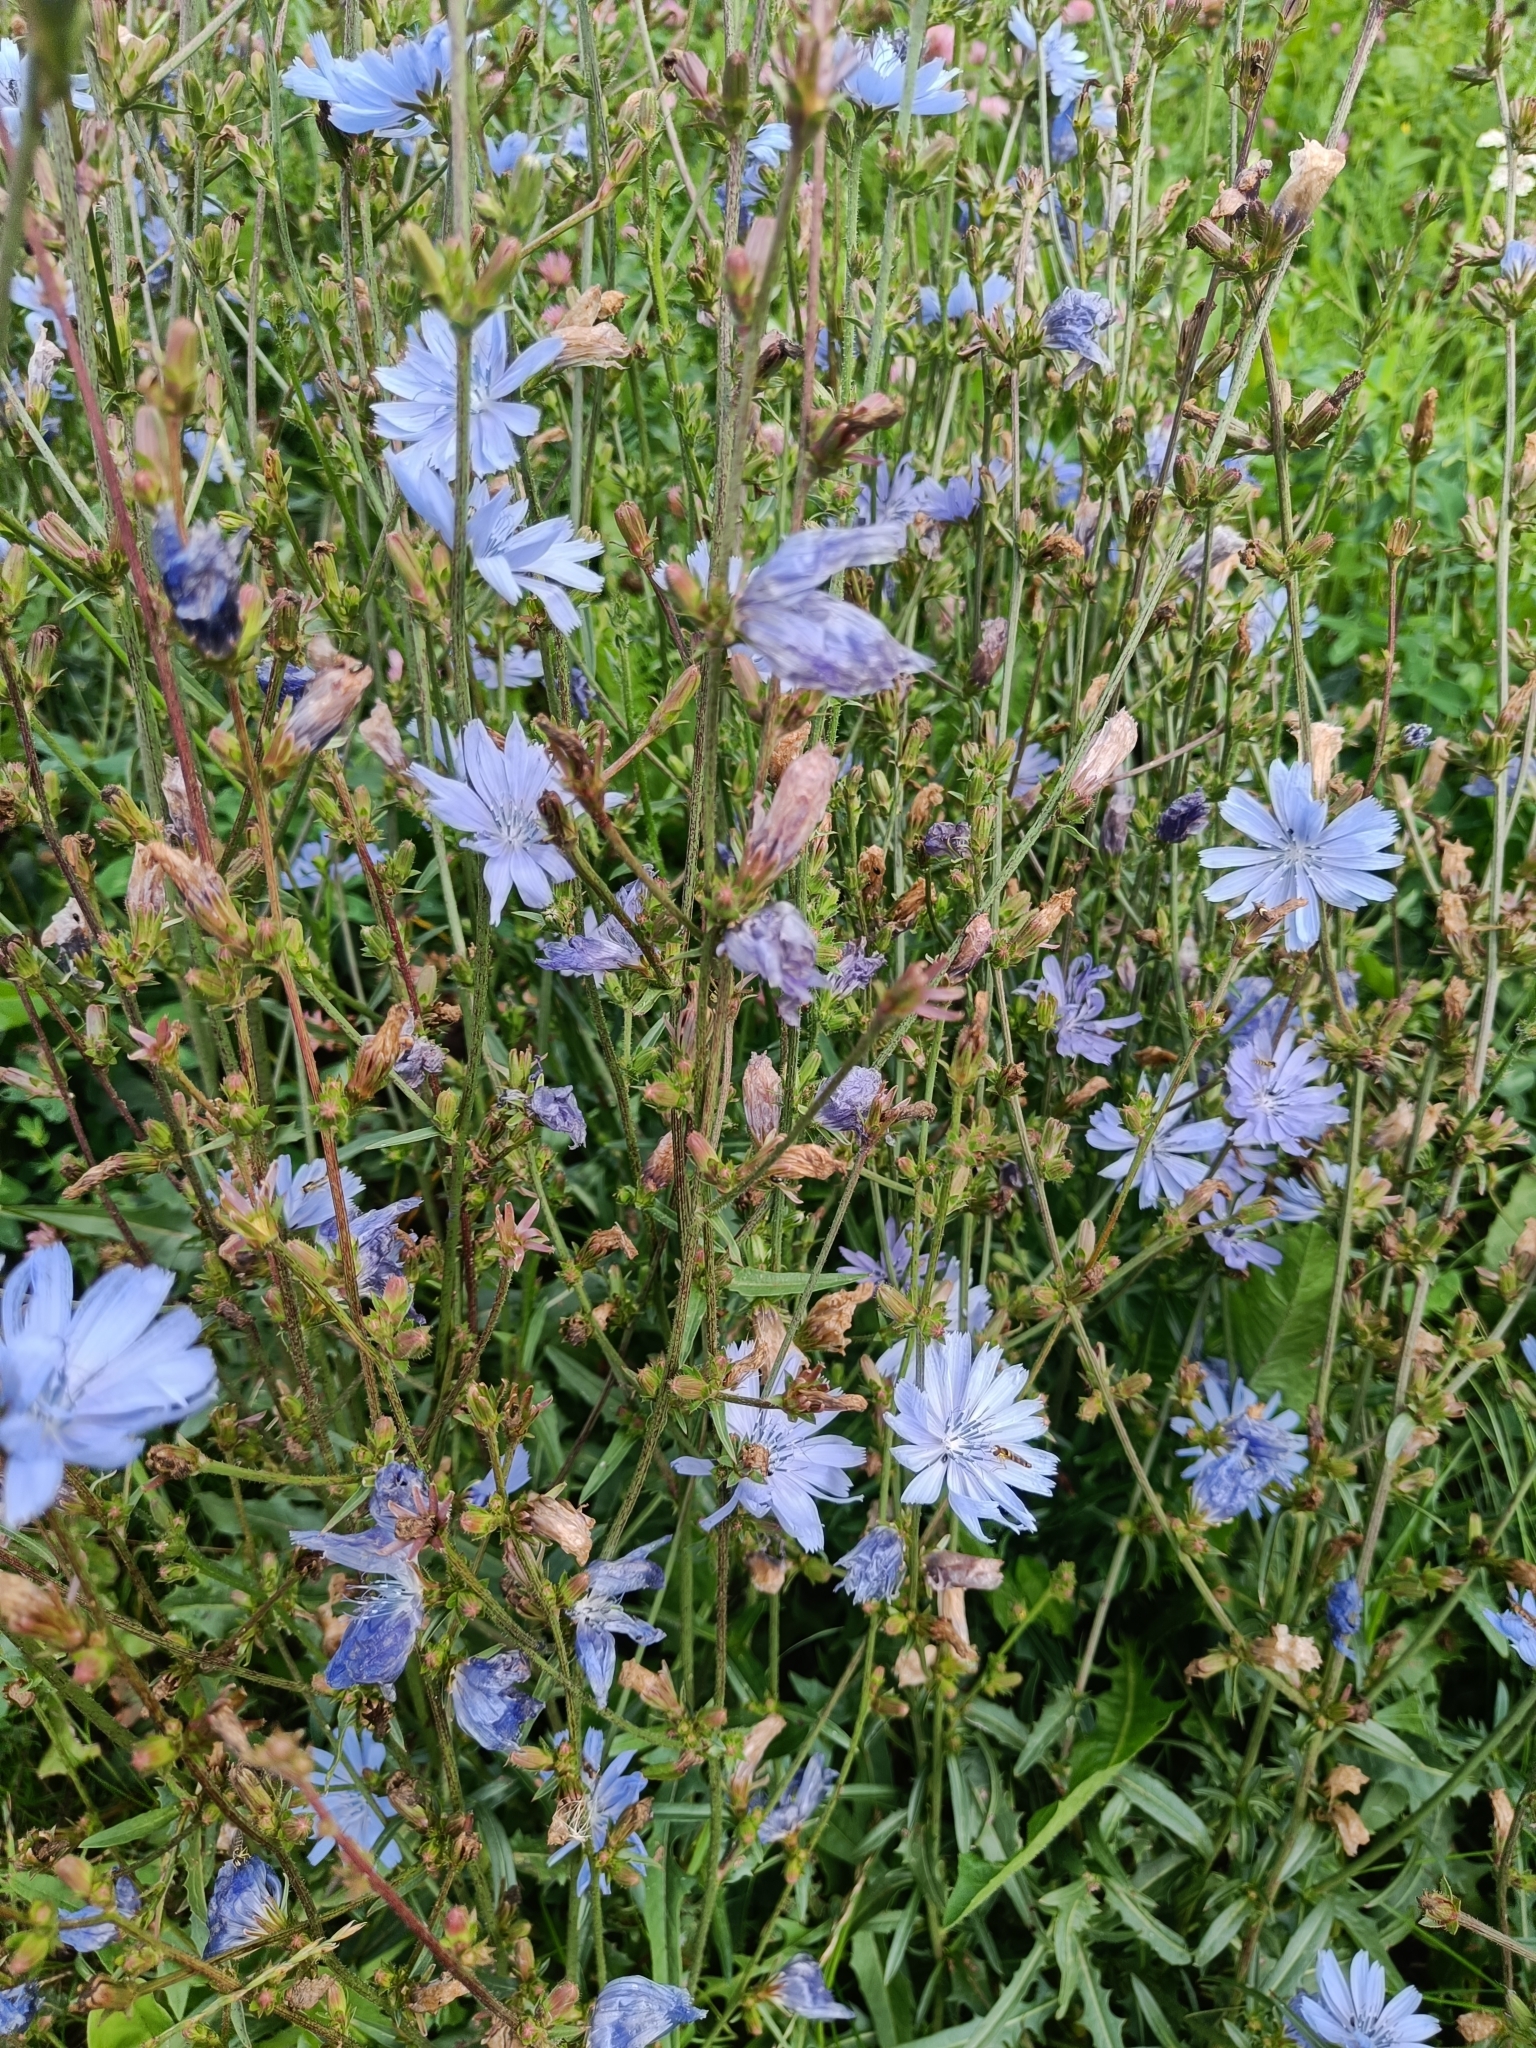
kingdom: Plantae
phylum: Tracheophyta
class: Magnoliopsida
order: Asterales
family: Asteraceae
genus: Cichorium
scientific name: Cichorium intybus
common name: Chicory
